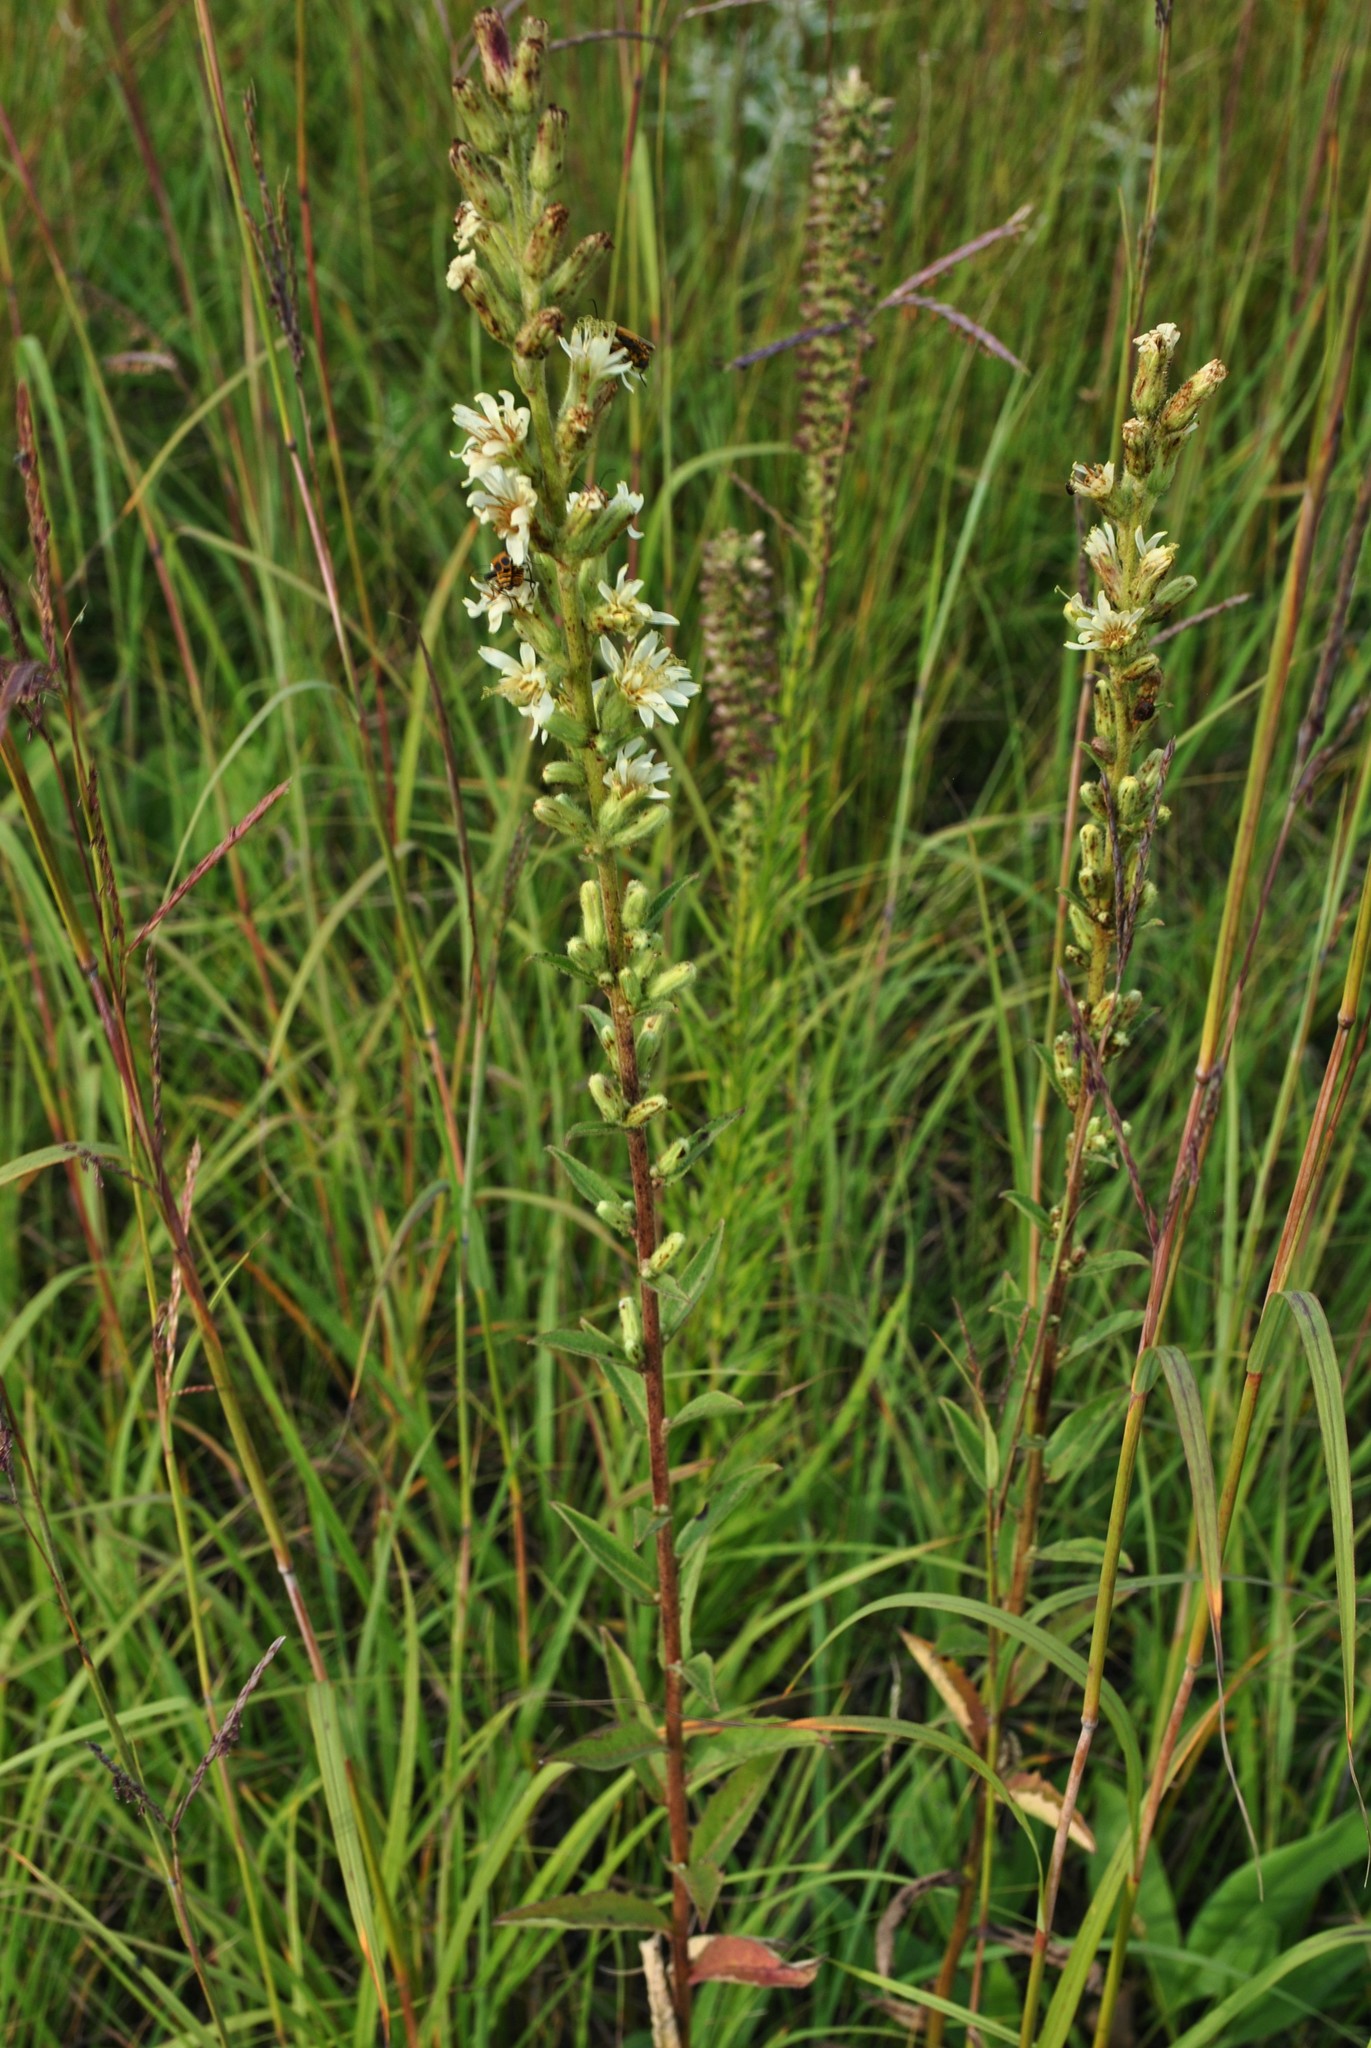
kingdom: Plantae
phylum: Tracheophyta
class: Magnoliopsida
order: Asterales
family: Asteraceae
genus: Nabalus
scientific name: Nabalus asper
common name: Rough rattlesnakeroot
